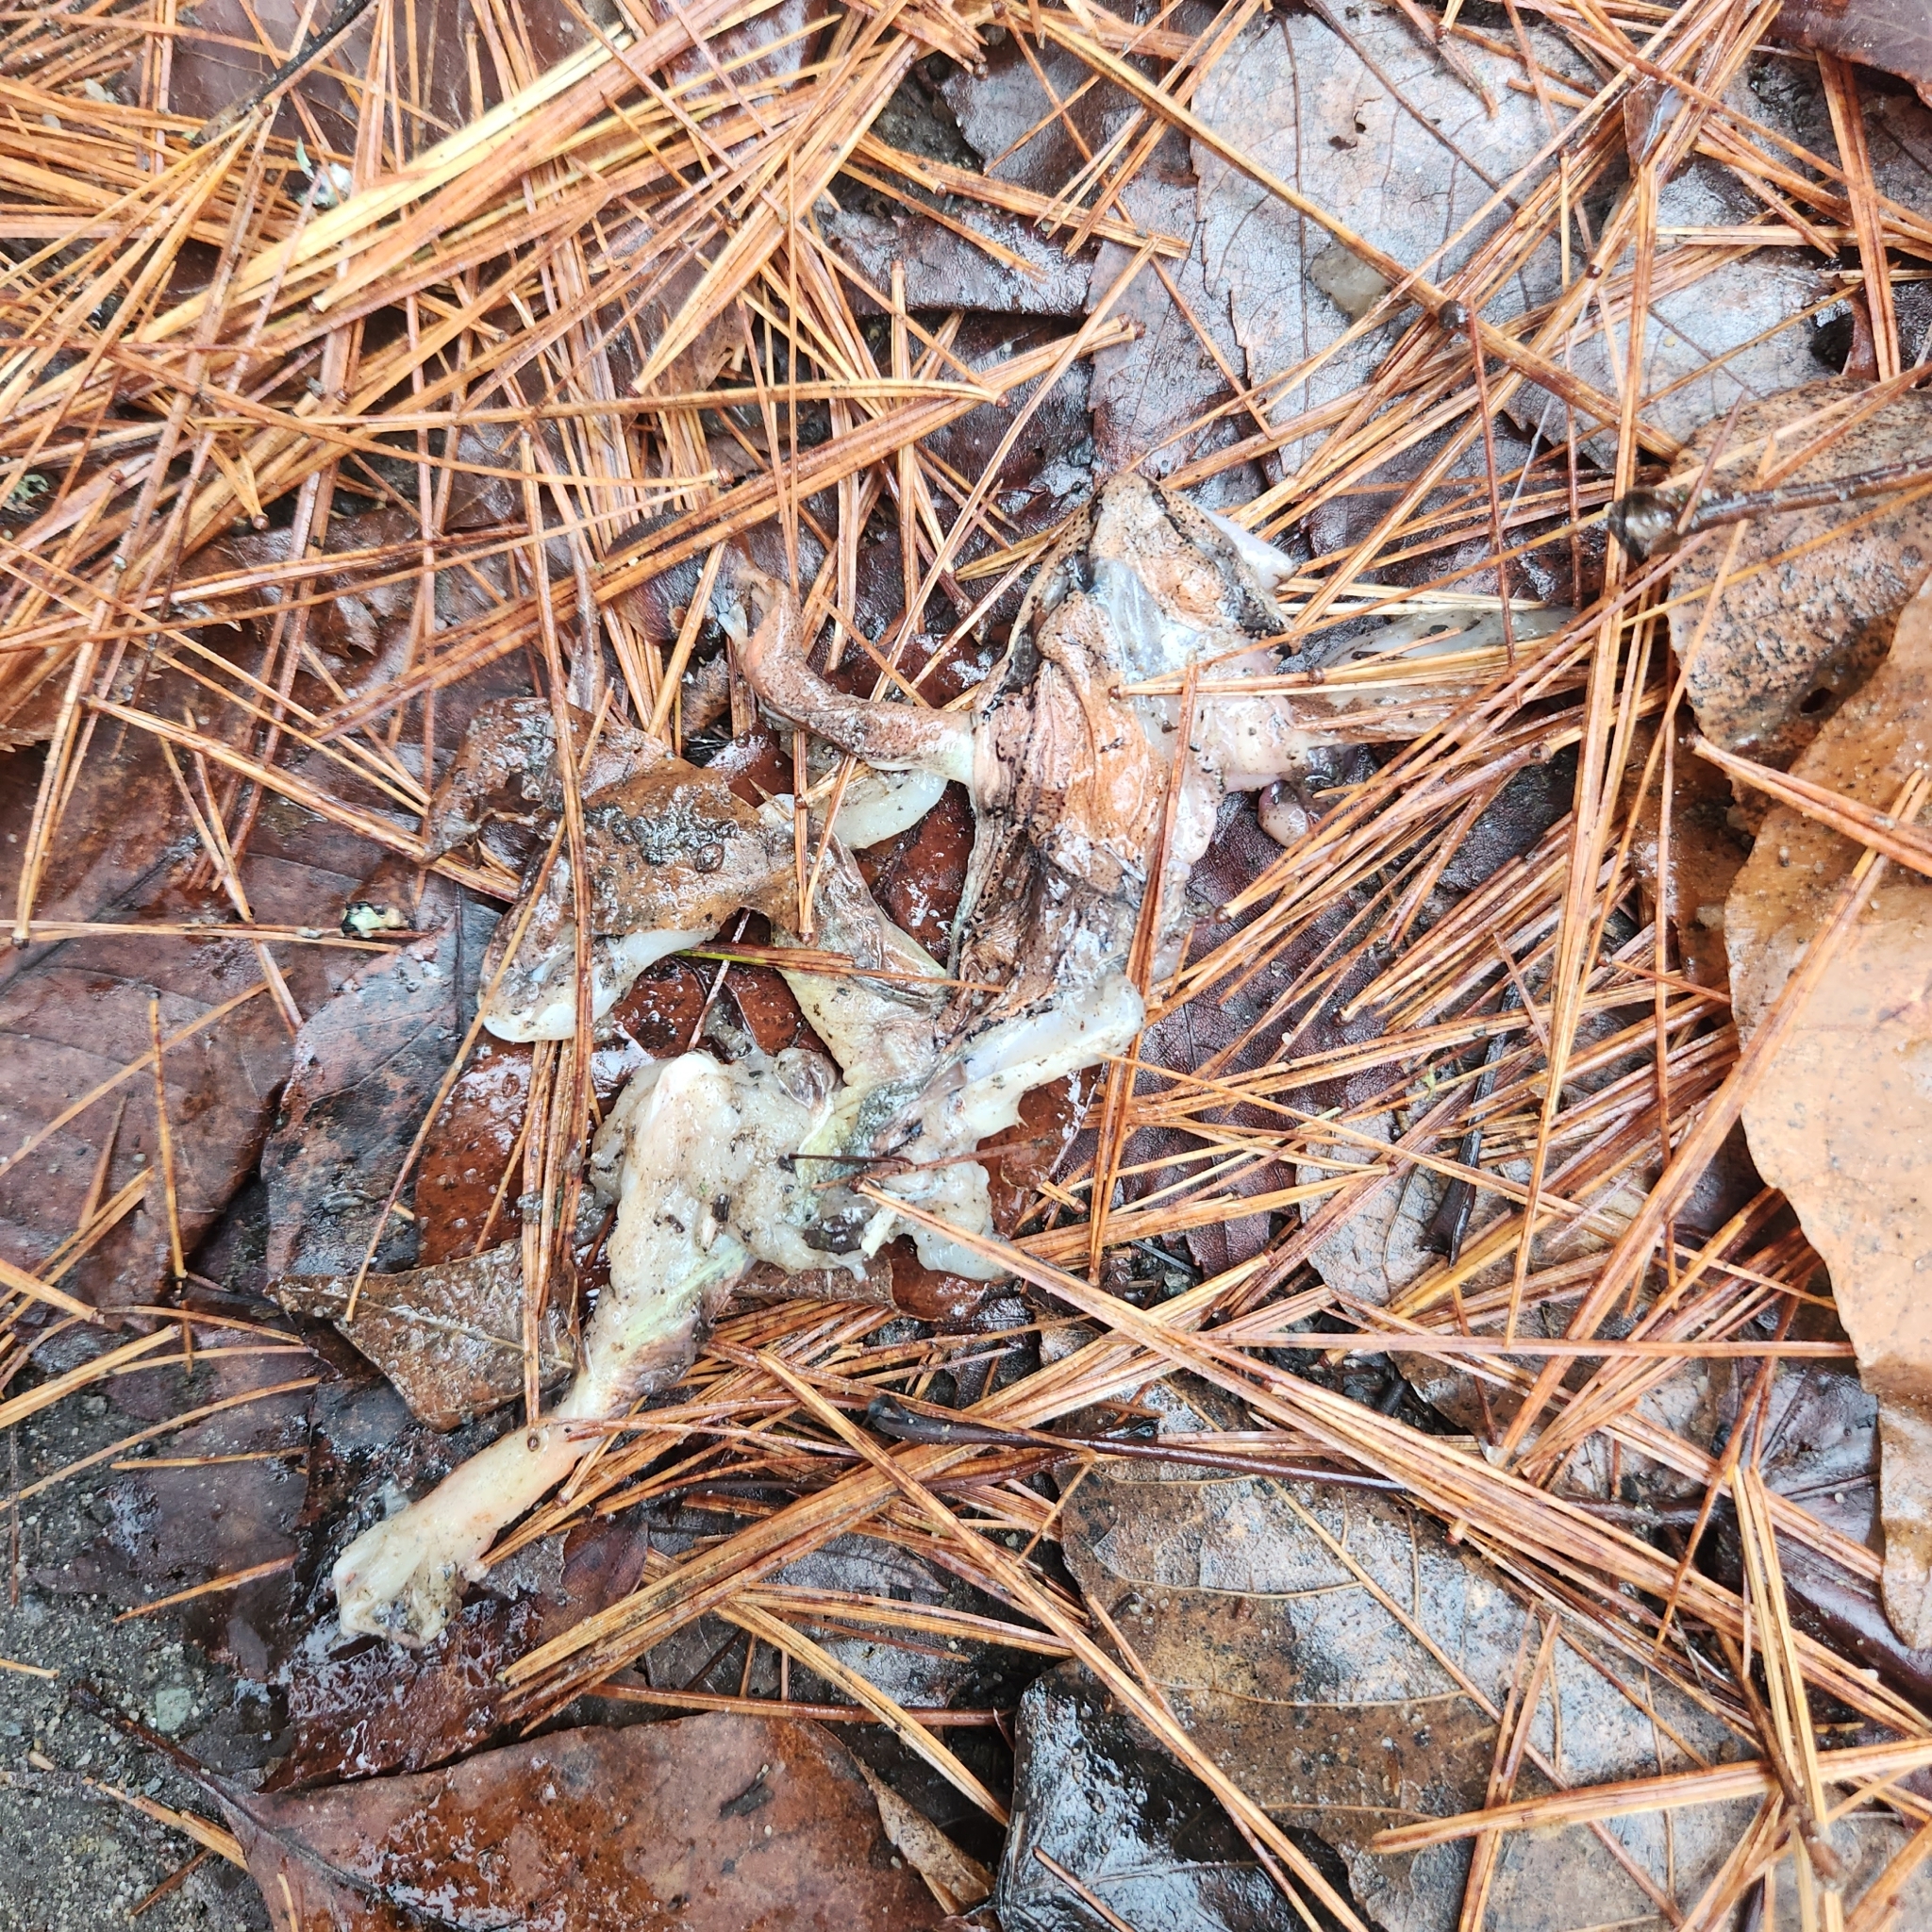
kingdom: Animalia
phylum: Chordata
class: Amphibia
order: Anura
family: Ranidae
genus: Lithobates
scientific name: Lithobates sylvaticus
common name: Wood frog
